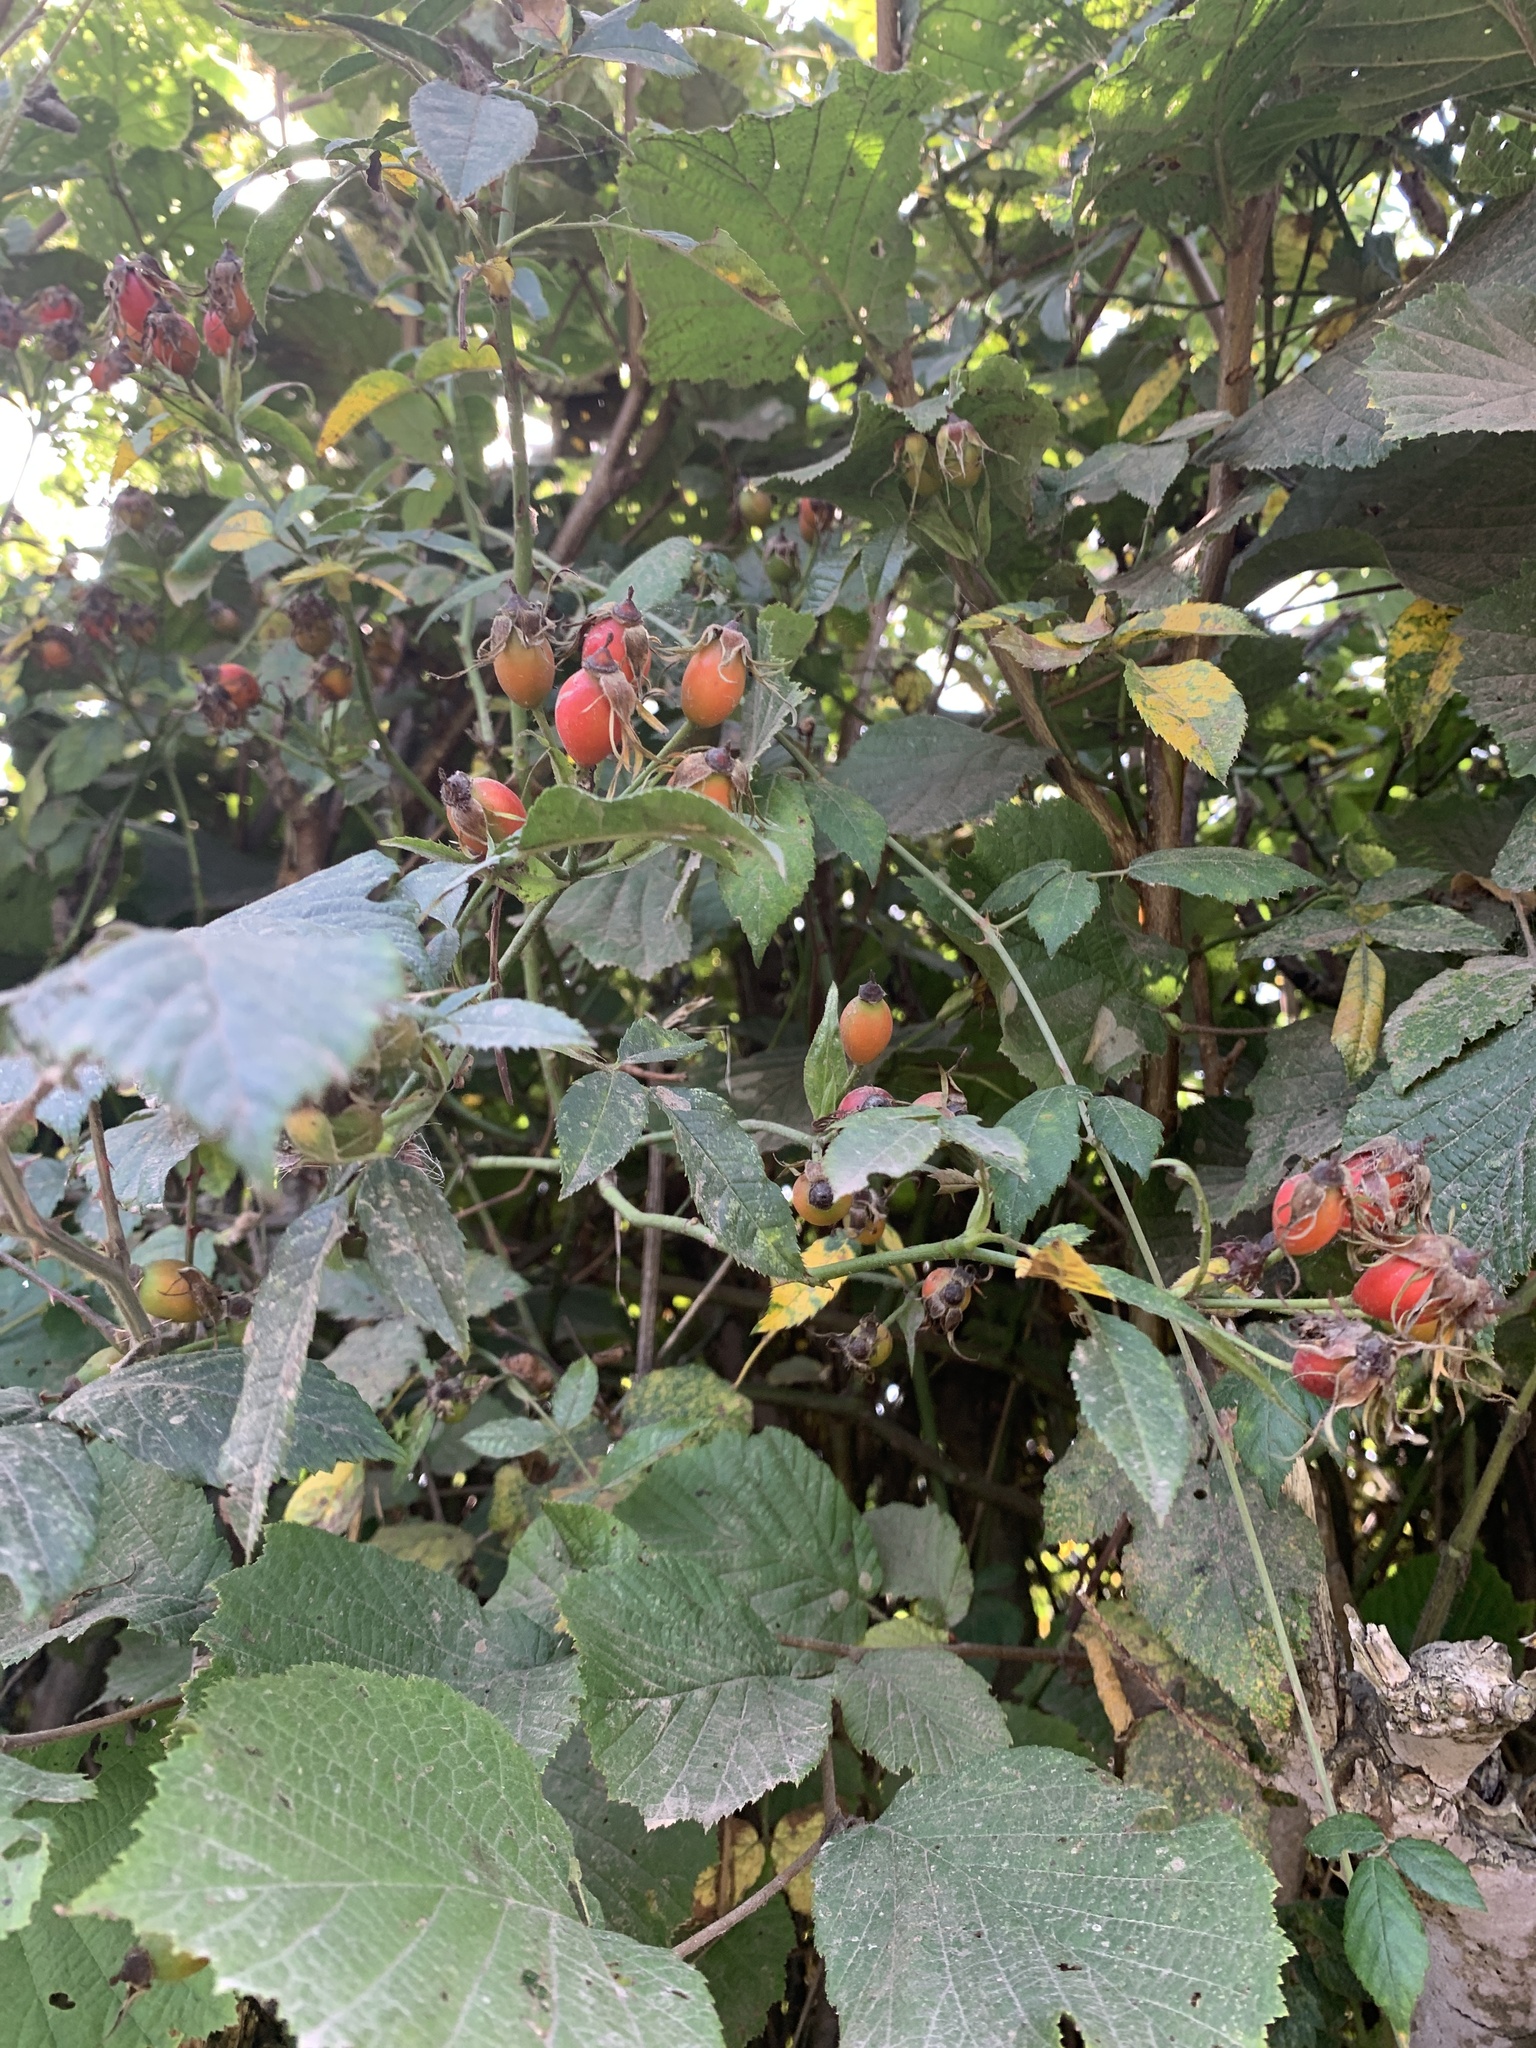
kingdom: Plantae
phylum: Tracheophyta
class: Magnoliopsida
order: Rosales
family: Rosaceae
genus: Rosa
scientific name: Rosa canina
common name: Dog rose
